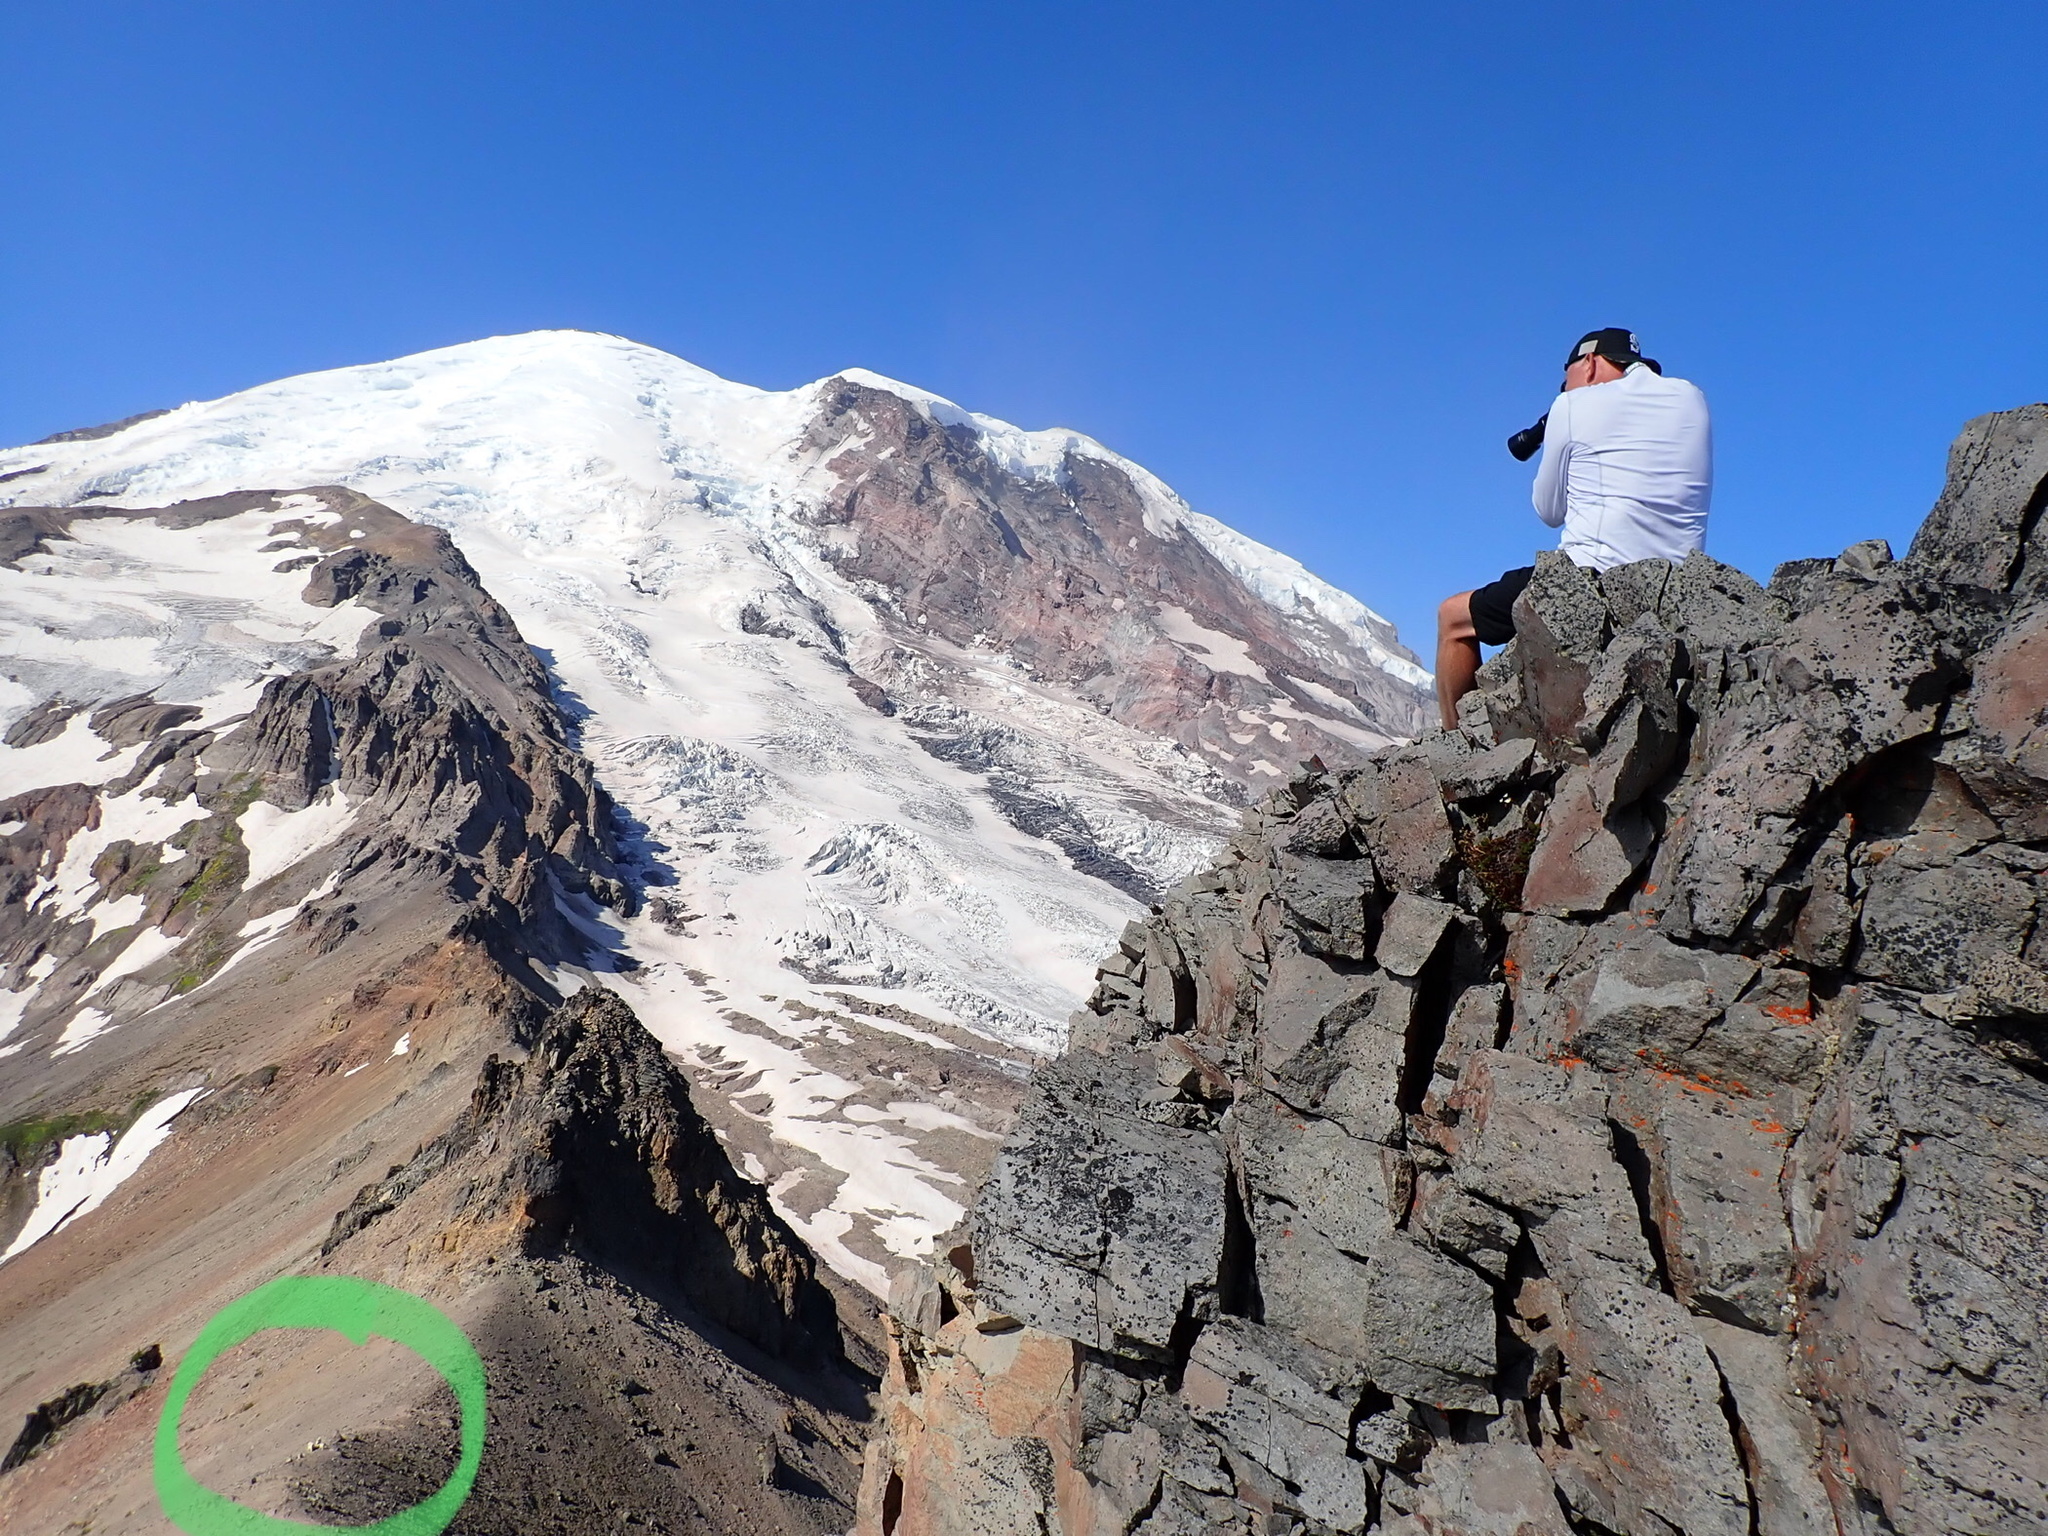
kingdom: Animalia
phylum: Chordata
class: Mammalia
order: Artiodactyla
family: Bovidae
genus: Oreamnos
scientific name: Oreamnos americanus
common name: Mountain goat
